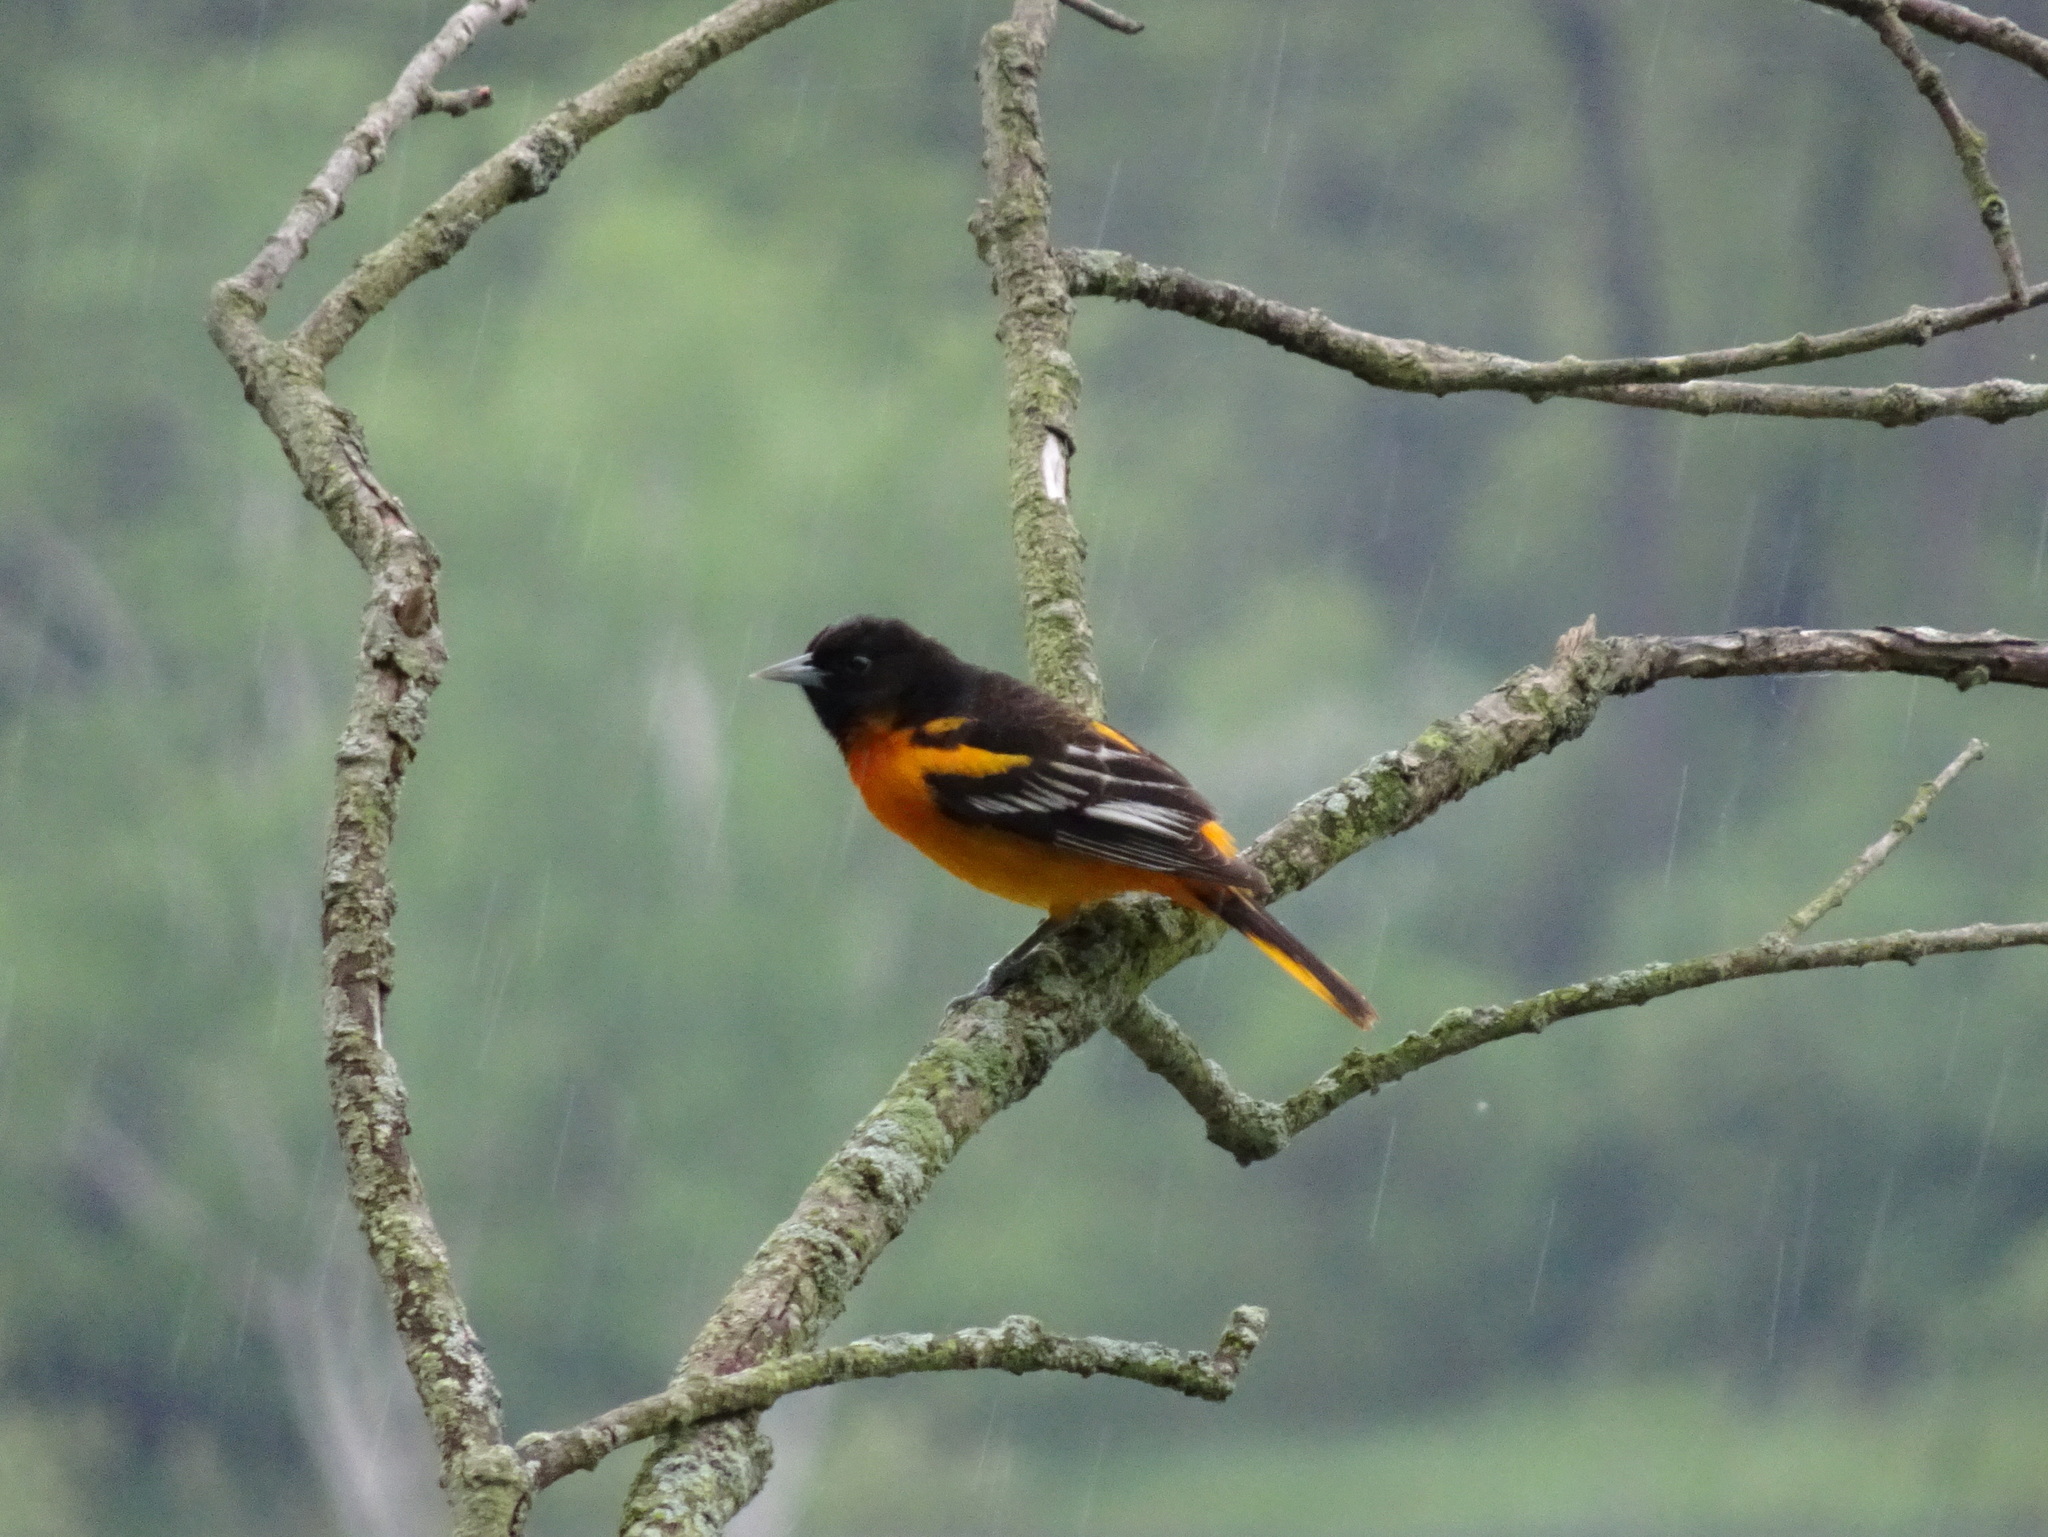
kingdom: Animalia
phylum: Chordata
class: Aves
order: Passeriformes
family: Icteridae
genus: Icterus
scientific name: Icterus galbula
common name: Baltimore oriole
